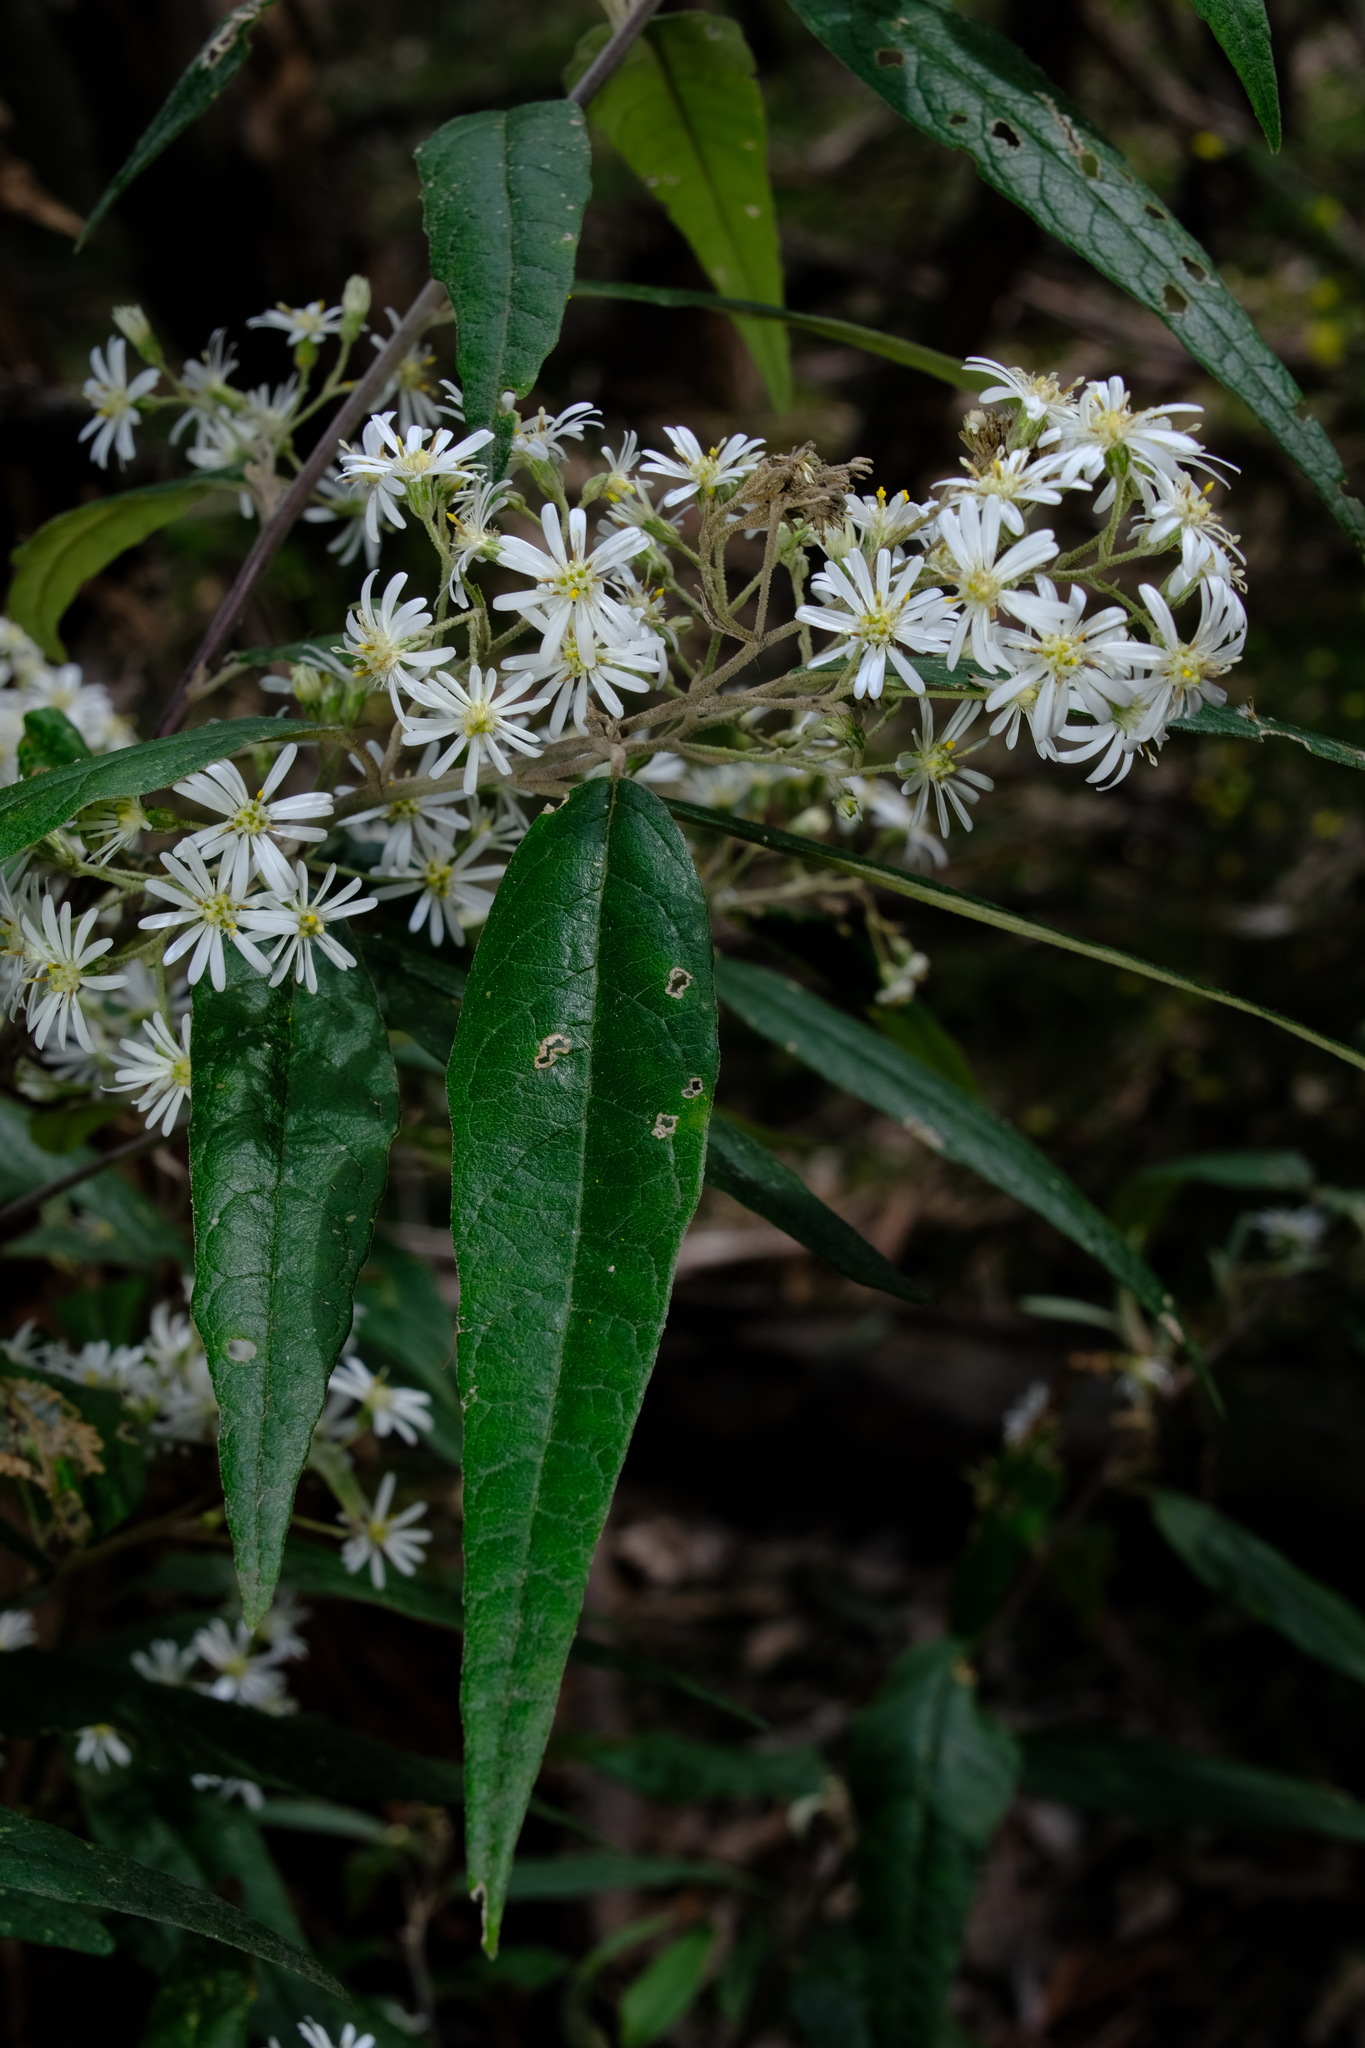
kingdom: Plantae
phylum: Tracheophyta
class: Magnoliopsida
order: Asterales
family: Asteraceae
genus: Olearia
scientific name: Olearia lirata
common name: Dusty daisybush
